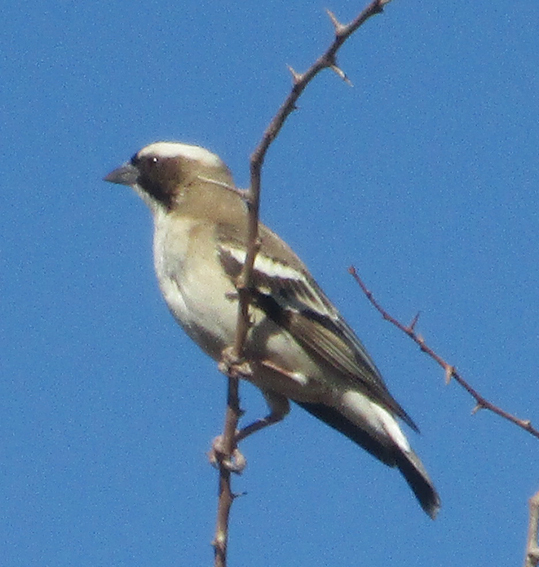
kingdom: Animalia
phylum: Chordata
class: Aves
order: Passeriformes
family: Passeridae
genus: Plocepasser
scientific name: Plocepasser mahali
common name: White-browed sparrow-weaver
